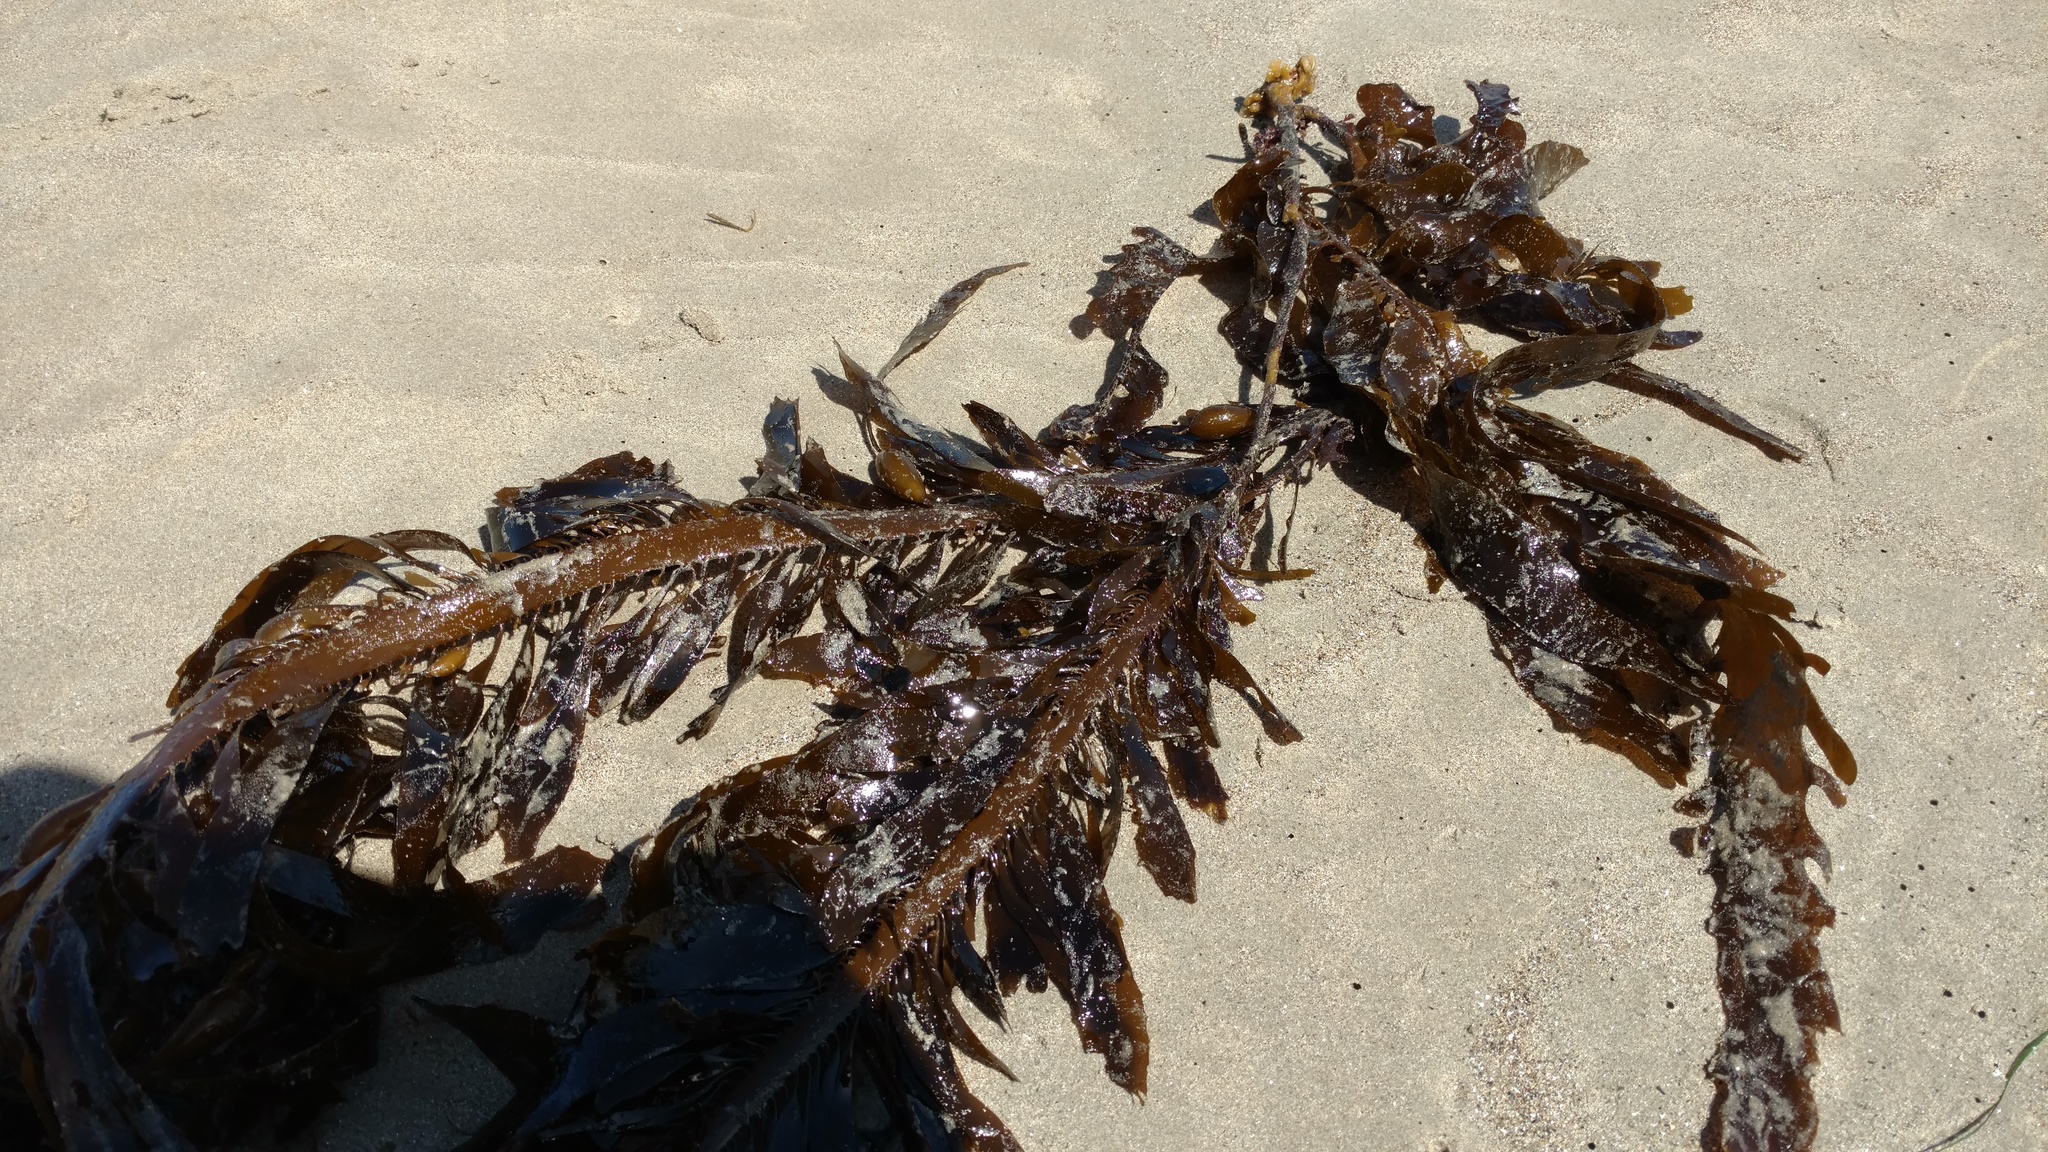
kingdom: Chromista
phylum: Ochrophyta
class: Phaeophyceae
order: Laminariales
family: Lessoniaceae
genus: Egregia
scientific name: Egregia menziesii
